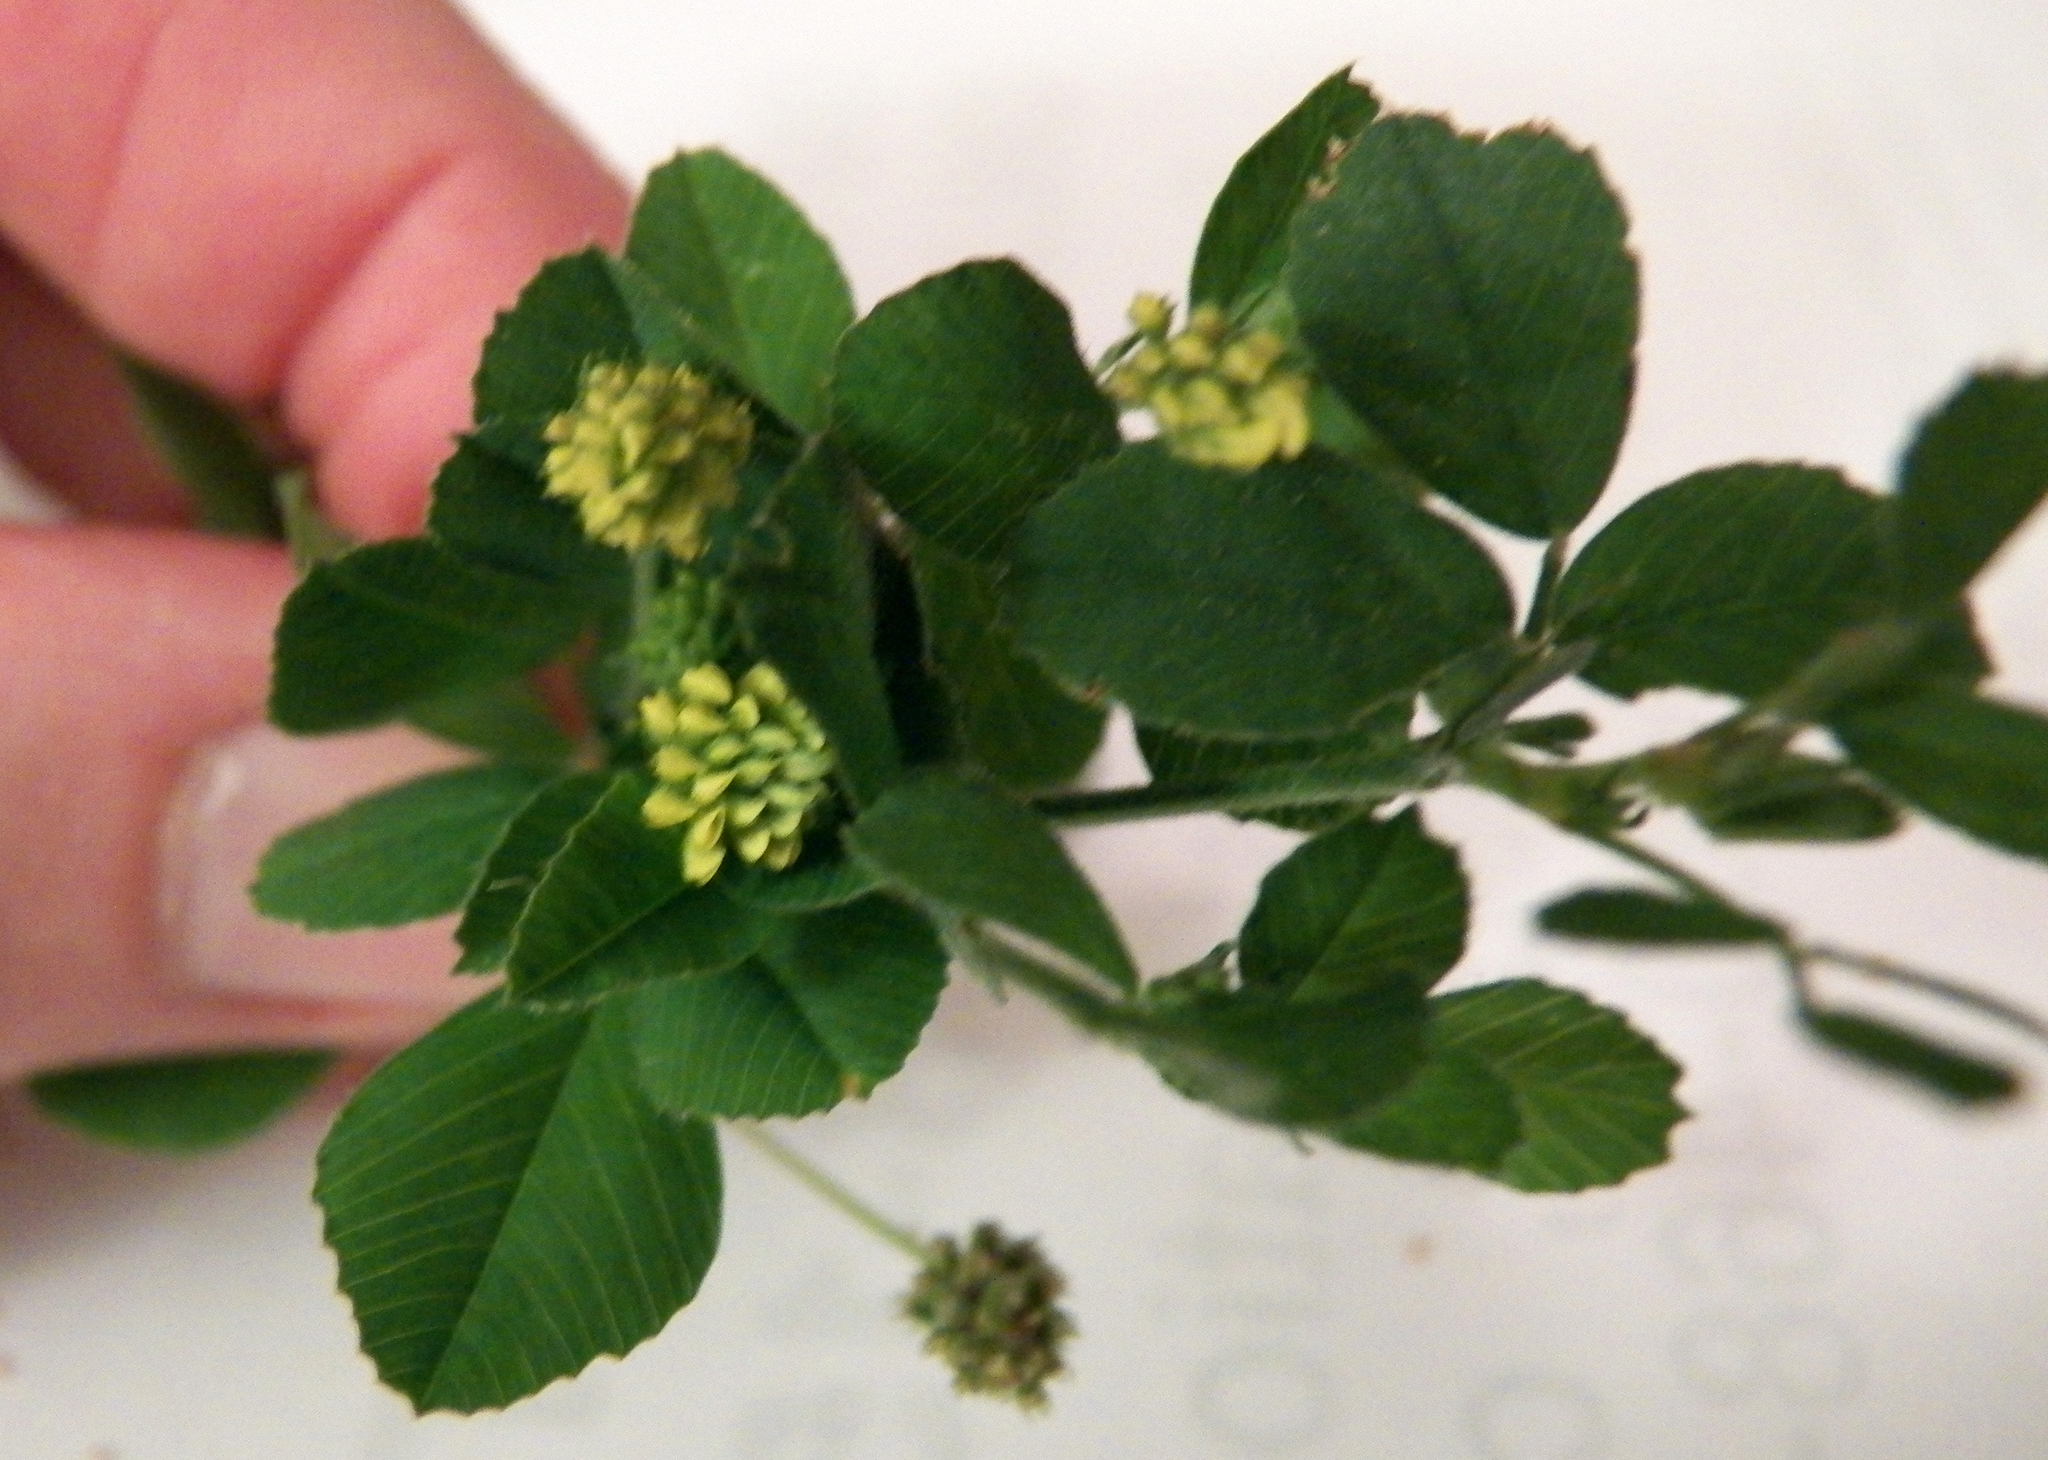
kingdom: Plantae
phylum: Tracheophyta
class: Magnoliopsida
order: Fabales
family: Fabaceae
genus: Medicago
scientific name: Medicago lupulina
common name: Black medick
